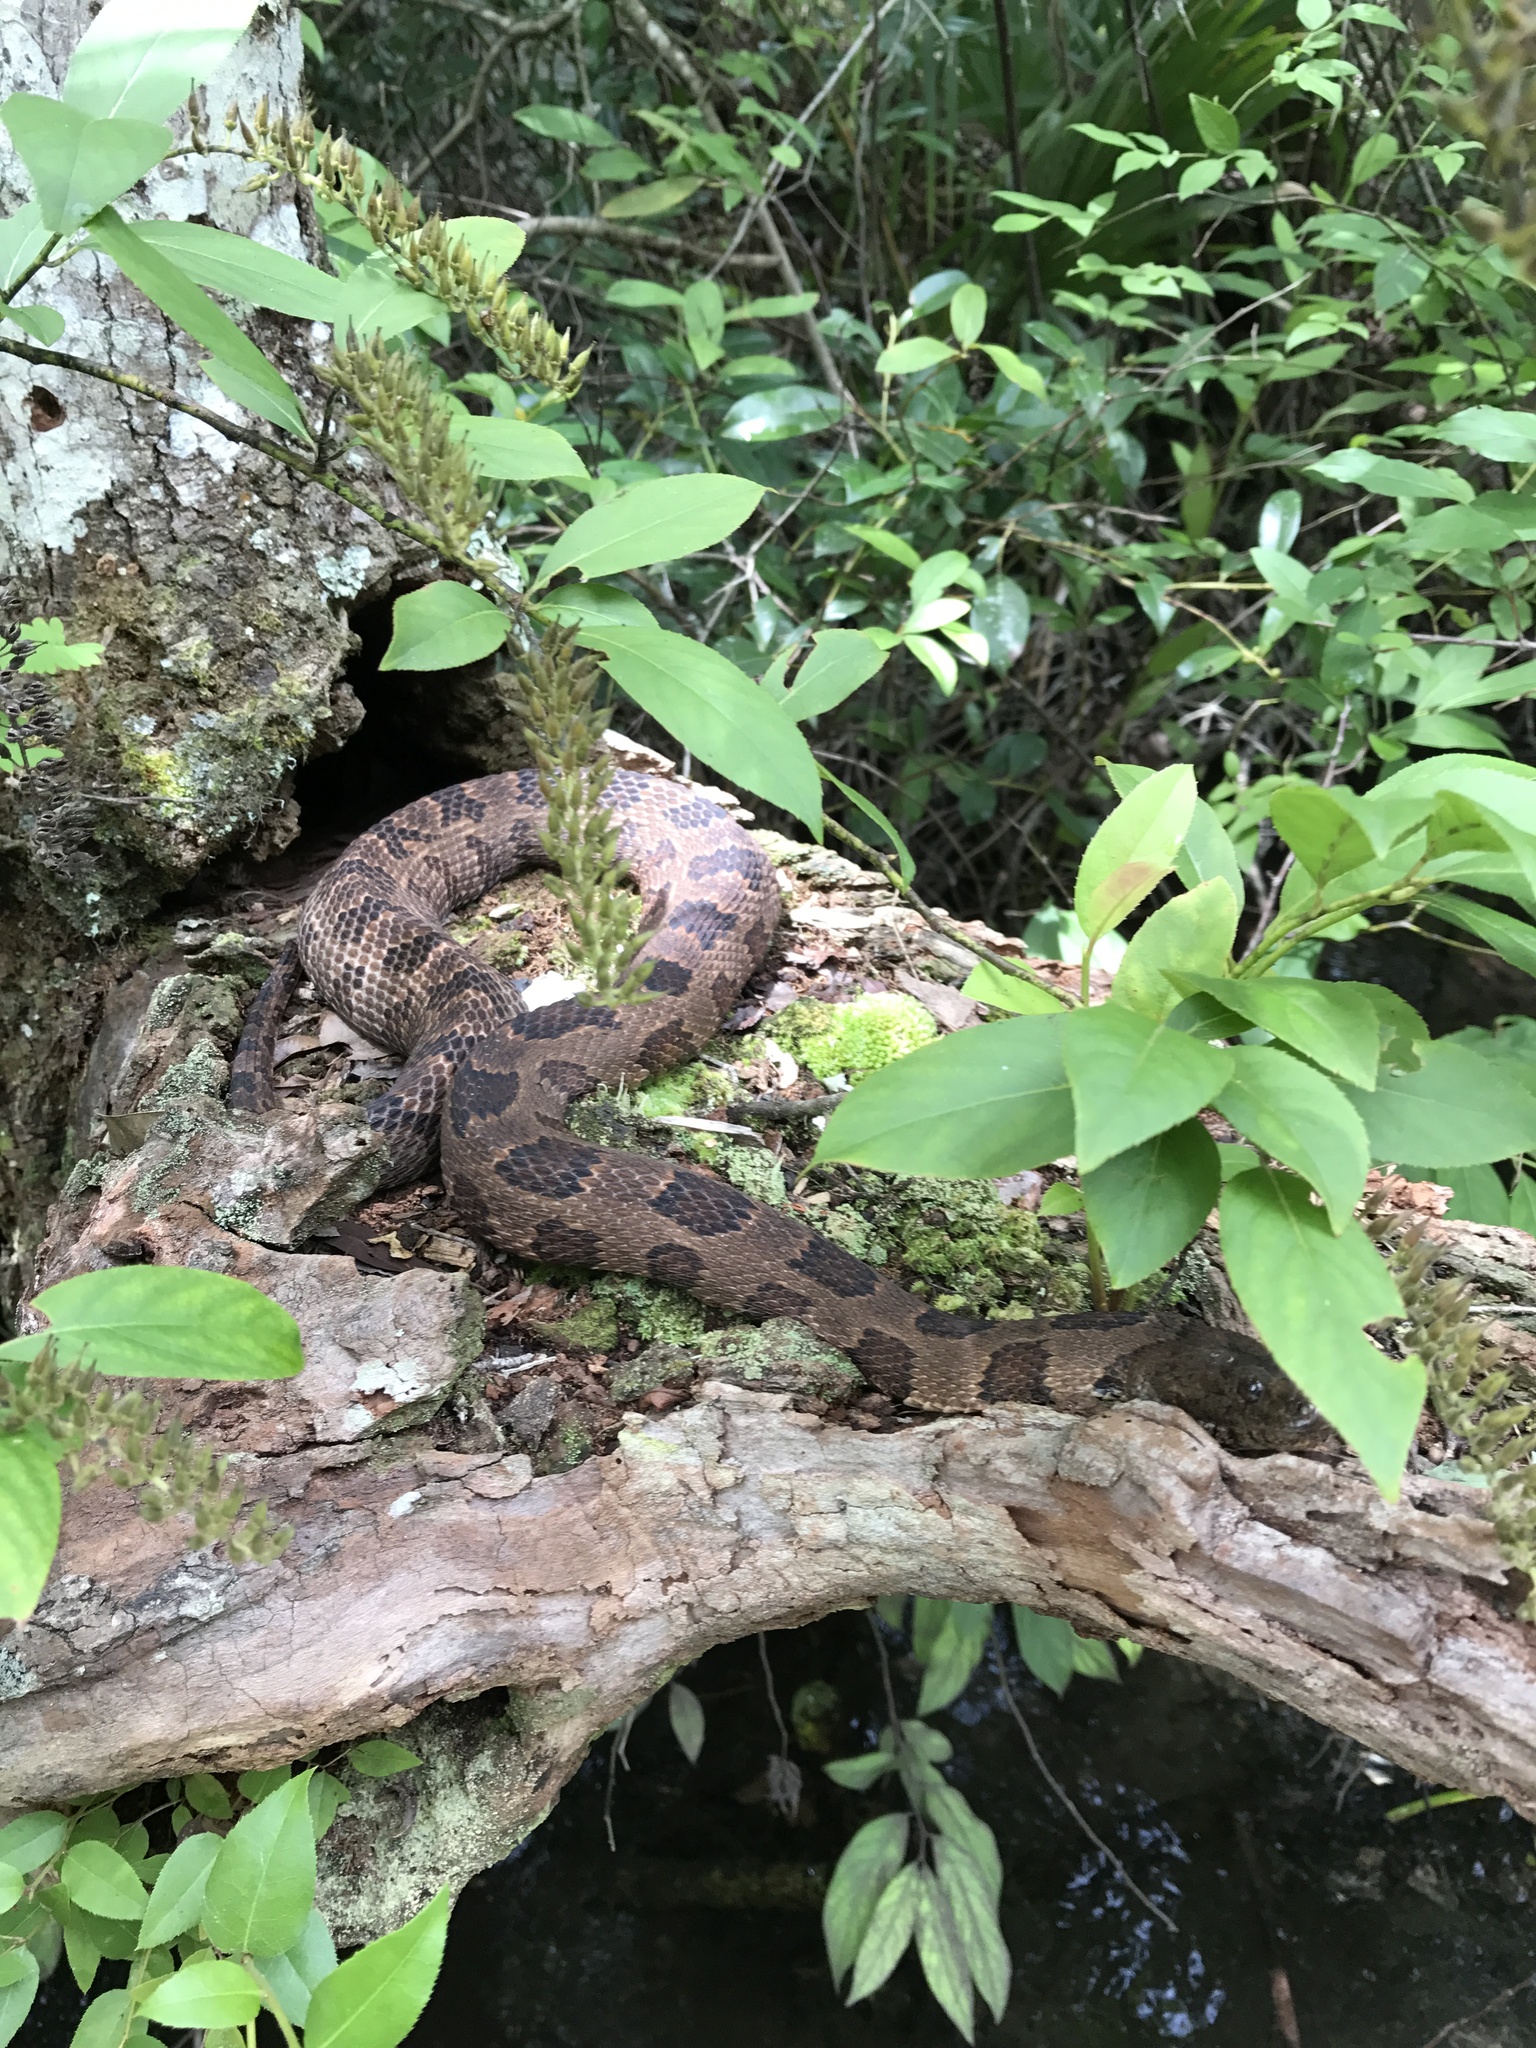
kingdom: Animalia
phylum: Chordata
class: Squamata
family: Colubridae
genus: Nerodia
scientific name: Nerodia taxispilota
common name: Brown water snake
